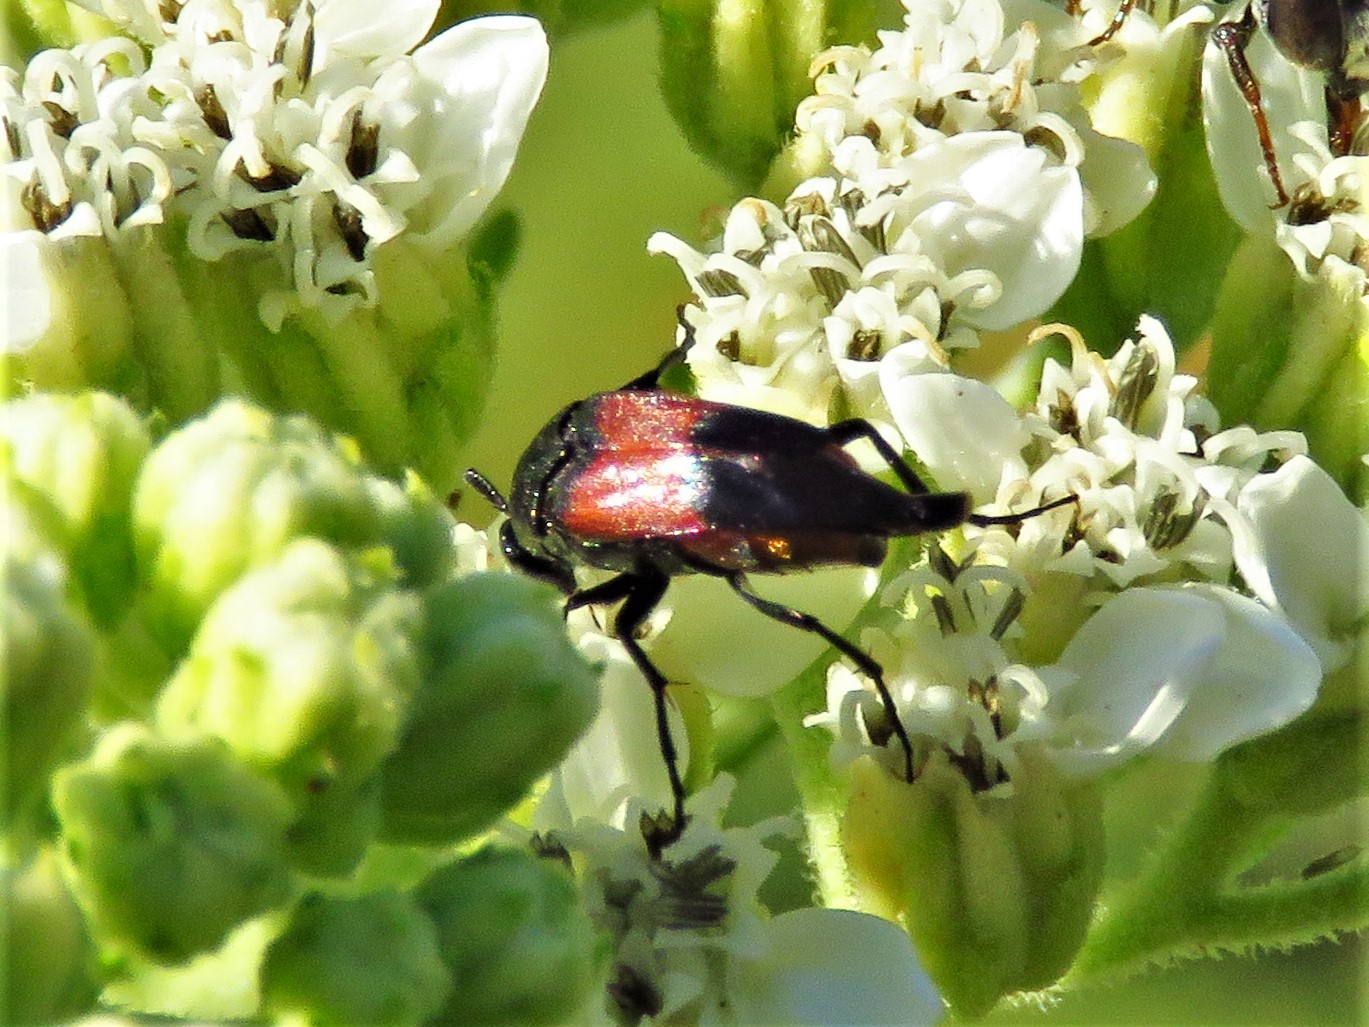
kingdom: Animalia
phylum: Arthropoda
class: Insecta
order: Coleoptera
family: Ripiphoridae
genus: Macrosiagon
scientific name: Macrosiagon cruentum
